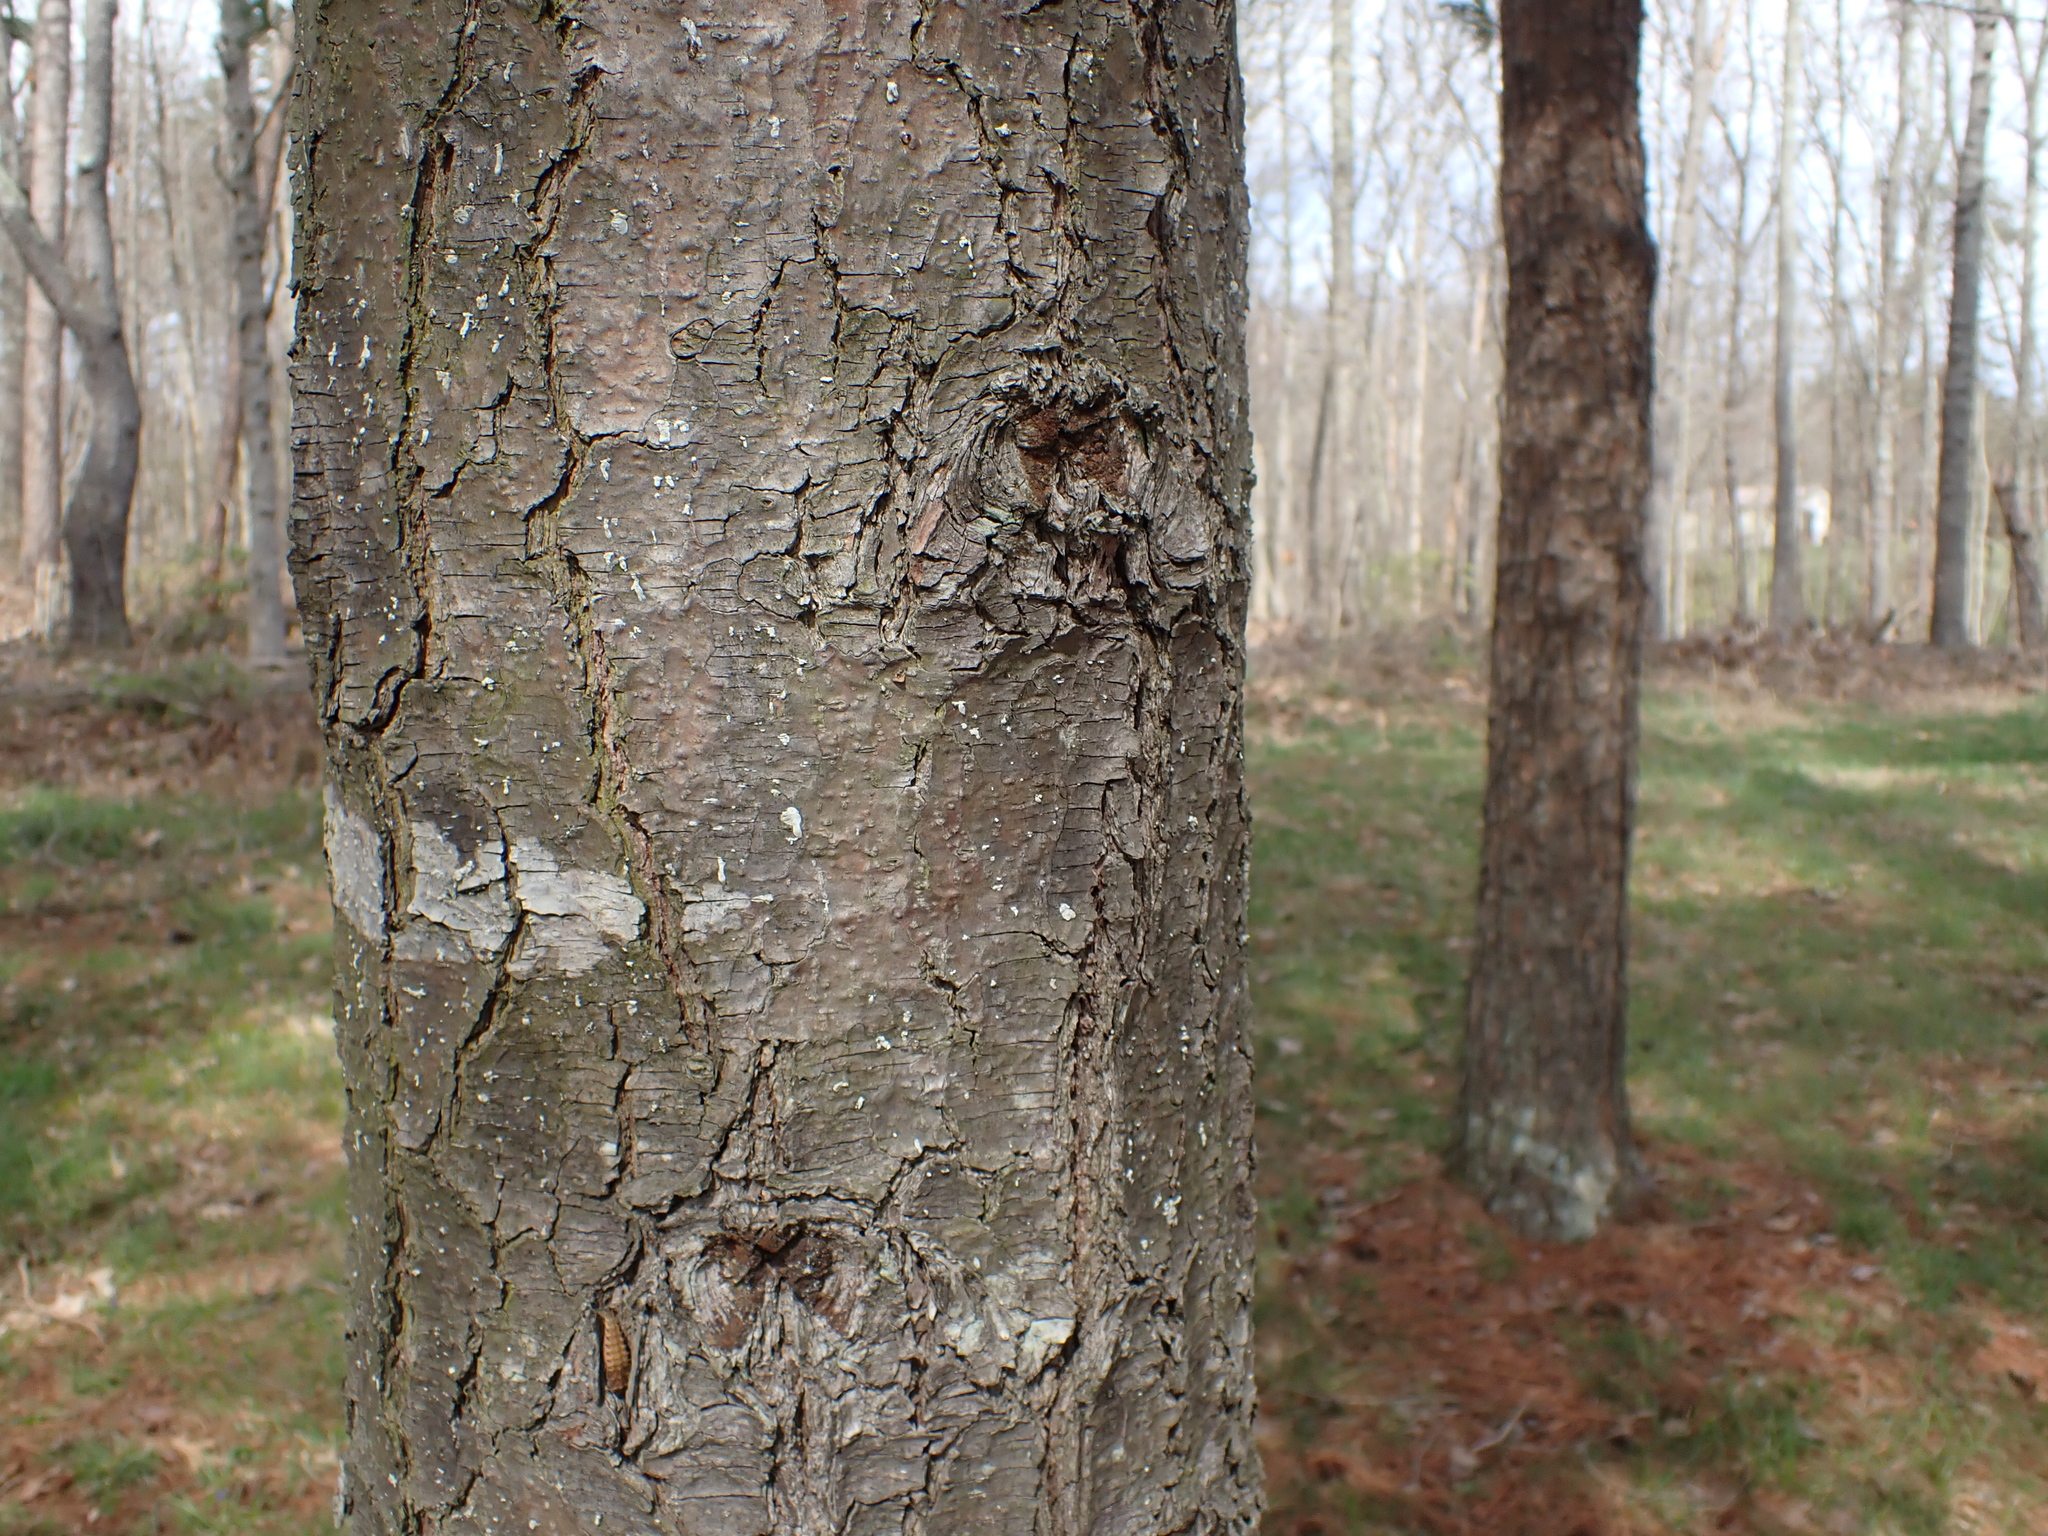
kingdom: Plantae
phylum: Tracheophyta
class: Pinopsida
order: Pinales
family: Pinaceae
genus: Pinus
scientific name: Pinus strobus
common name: Weymouth pine
